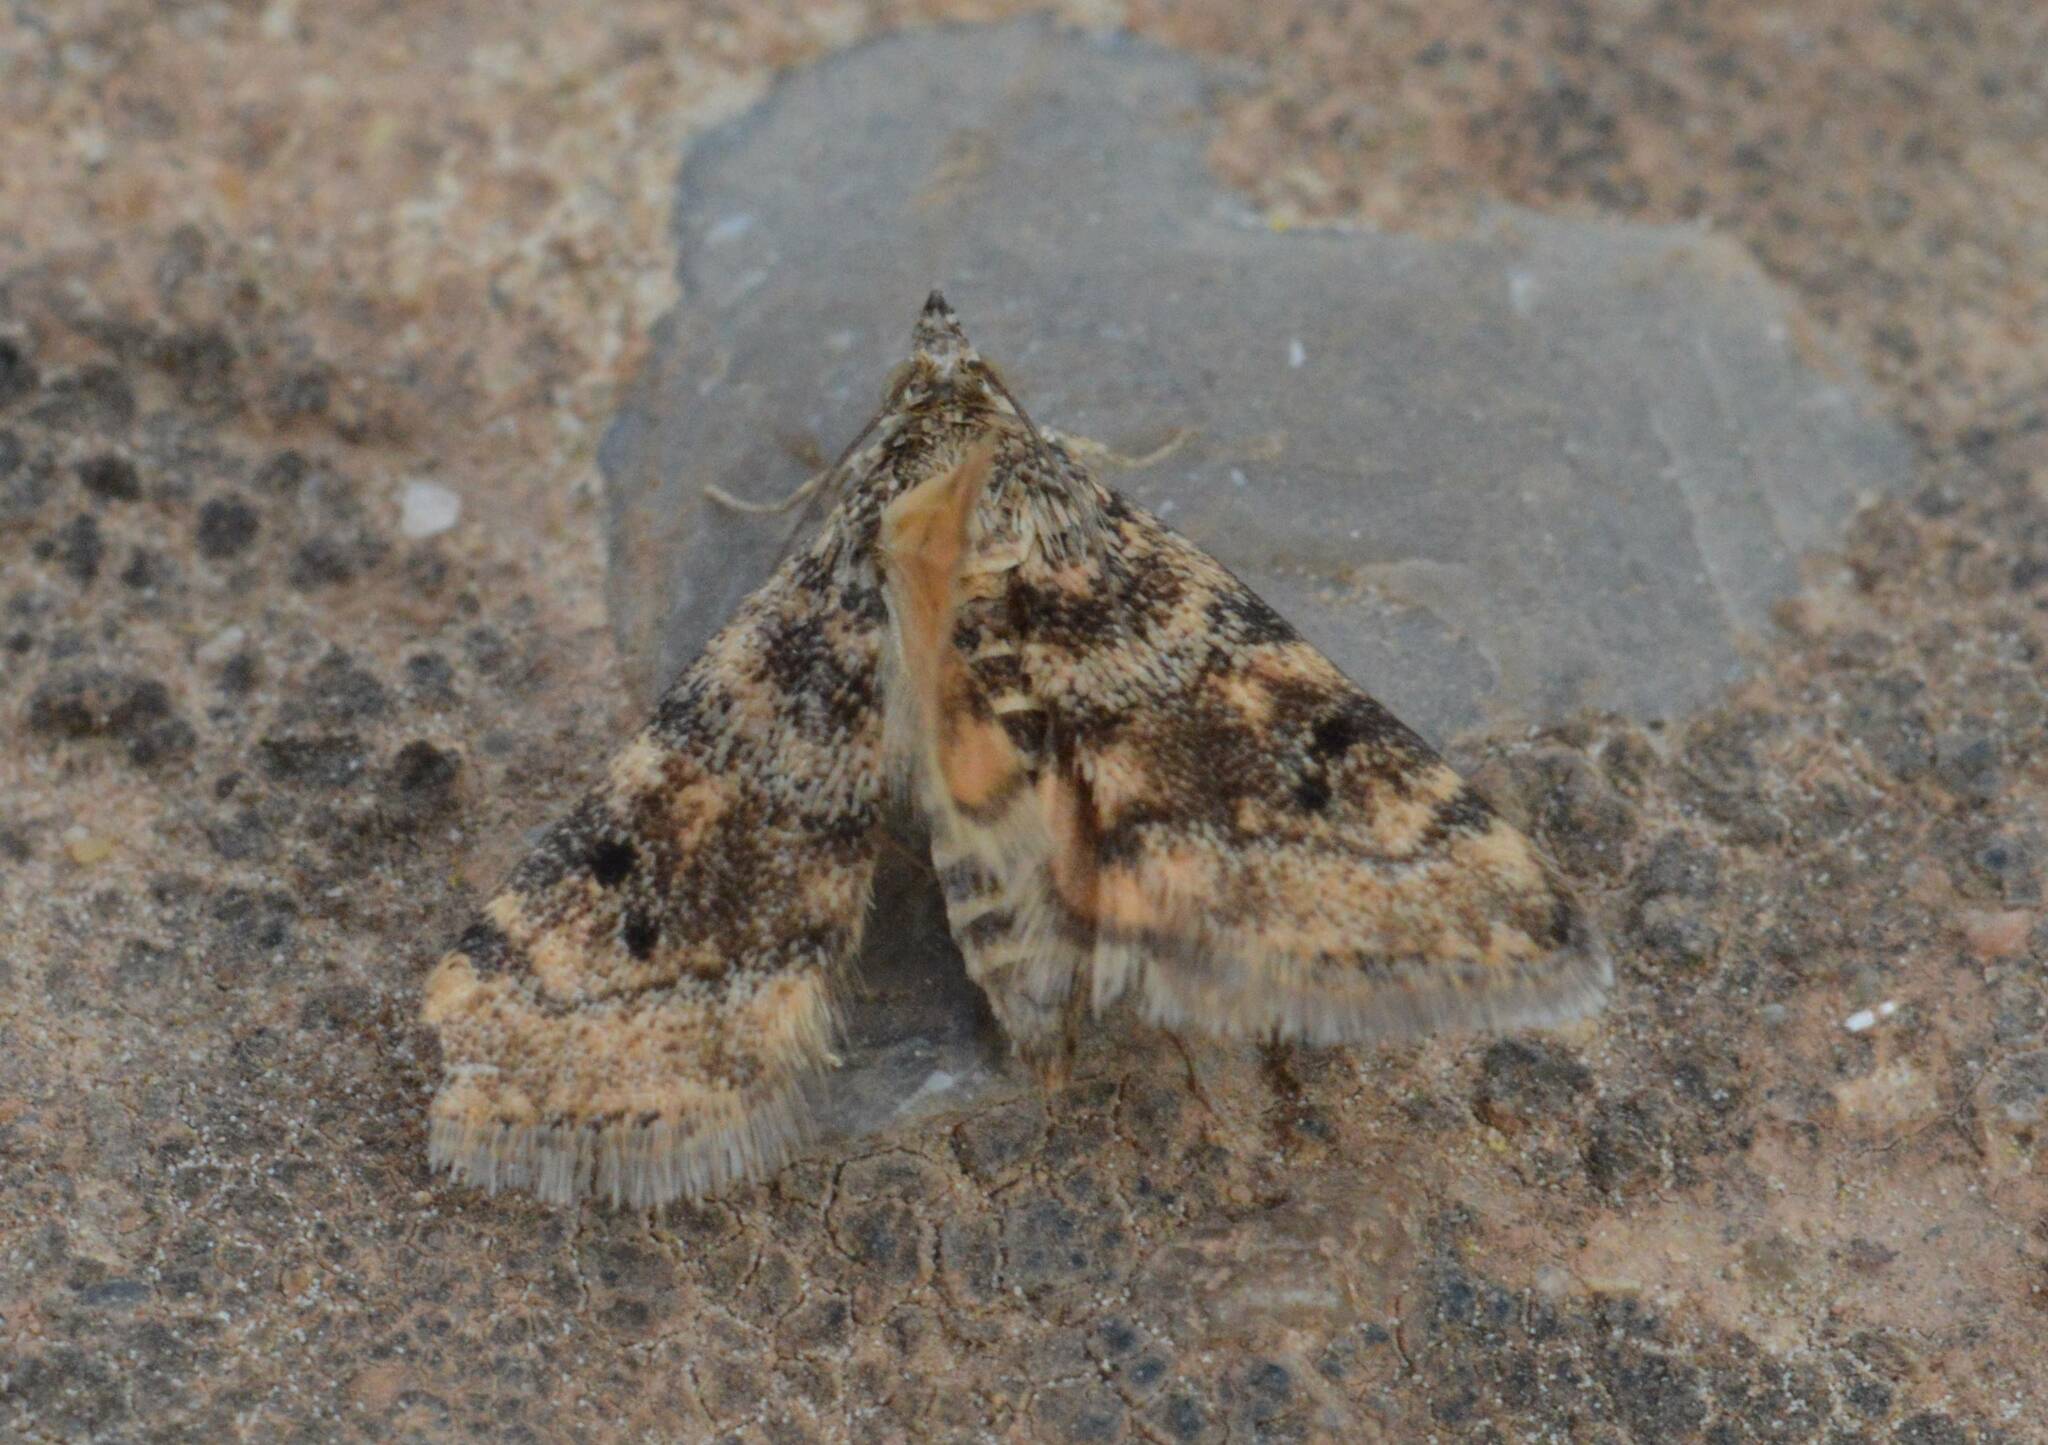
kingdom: Animalia
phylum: Arthropoda
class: Insecta
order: Lepidoptera
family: Crambidae
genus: Noctuelia
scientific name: Noctuelia Aporodes floralis
